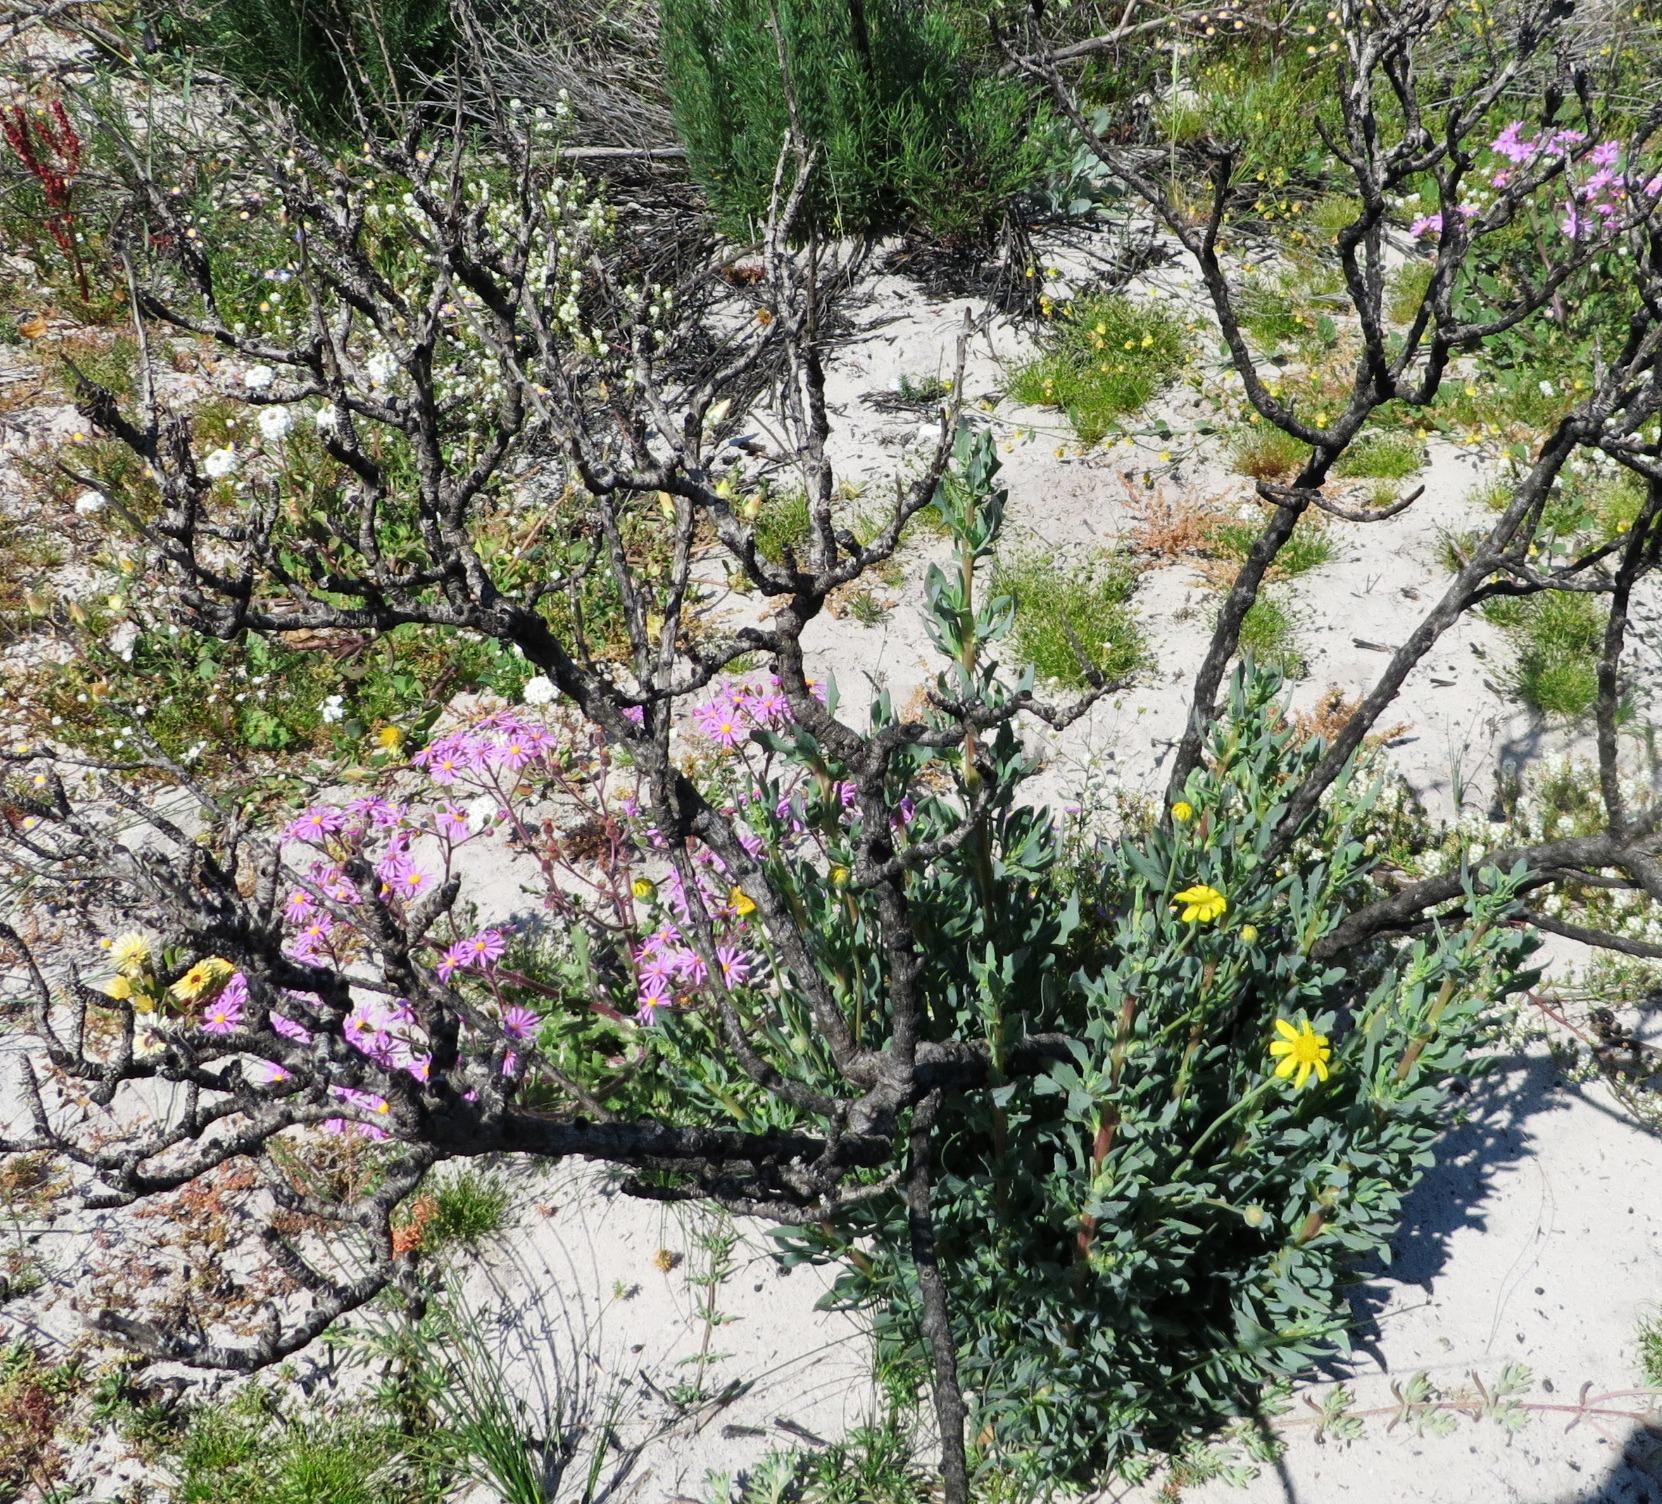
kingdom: Plantae
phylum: Tracheophyta
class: Magnoliopsida
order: Asterales
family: Asteraceae
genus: Othonna
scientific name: Othonna coronopifolia
